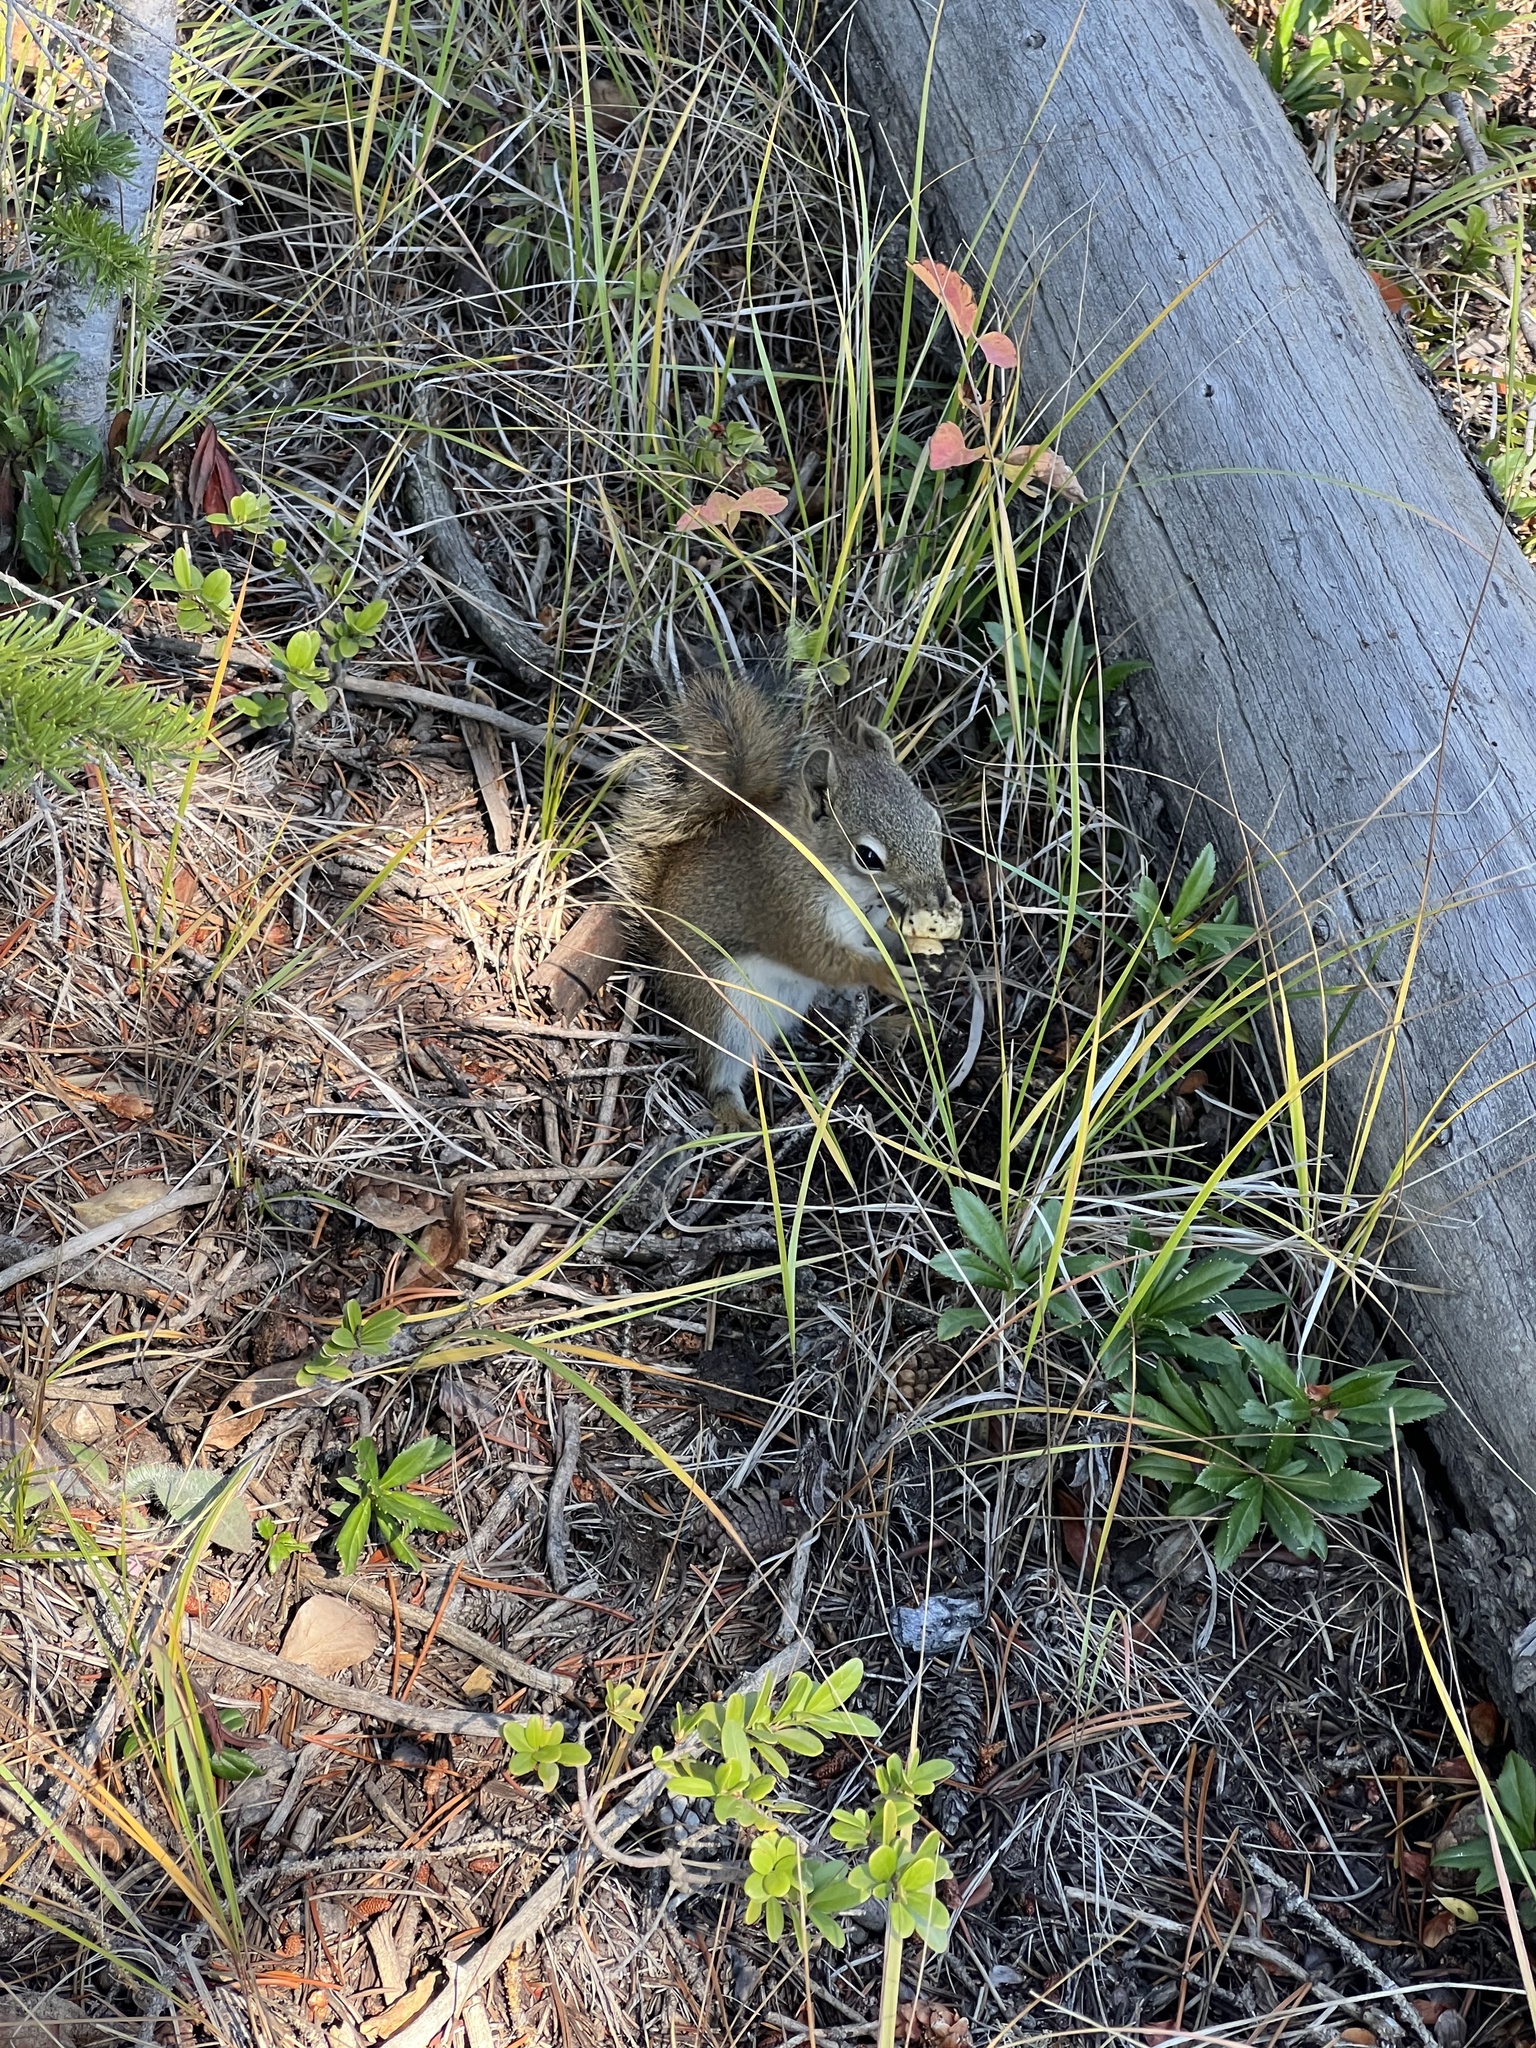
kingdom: Animalia
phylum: Chordata
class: Mammalia
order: Rodentia
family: Sciuridae
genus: Tamiasciurus
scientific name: Tamiasciurus hudsonicus
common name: Red squirrel
